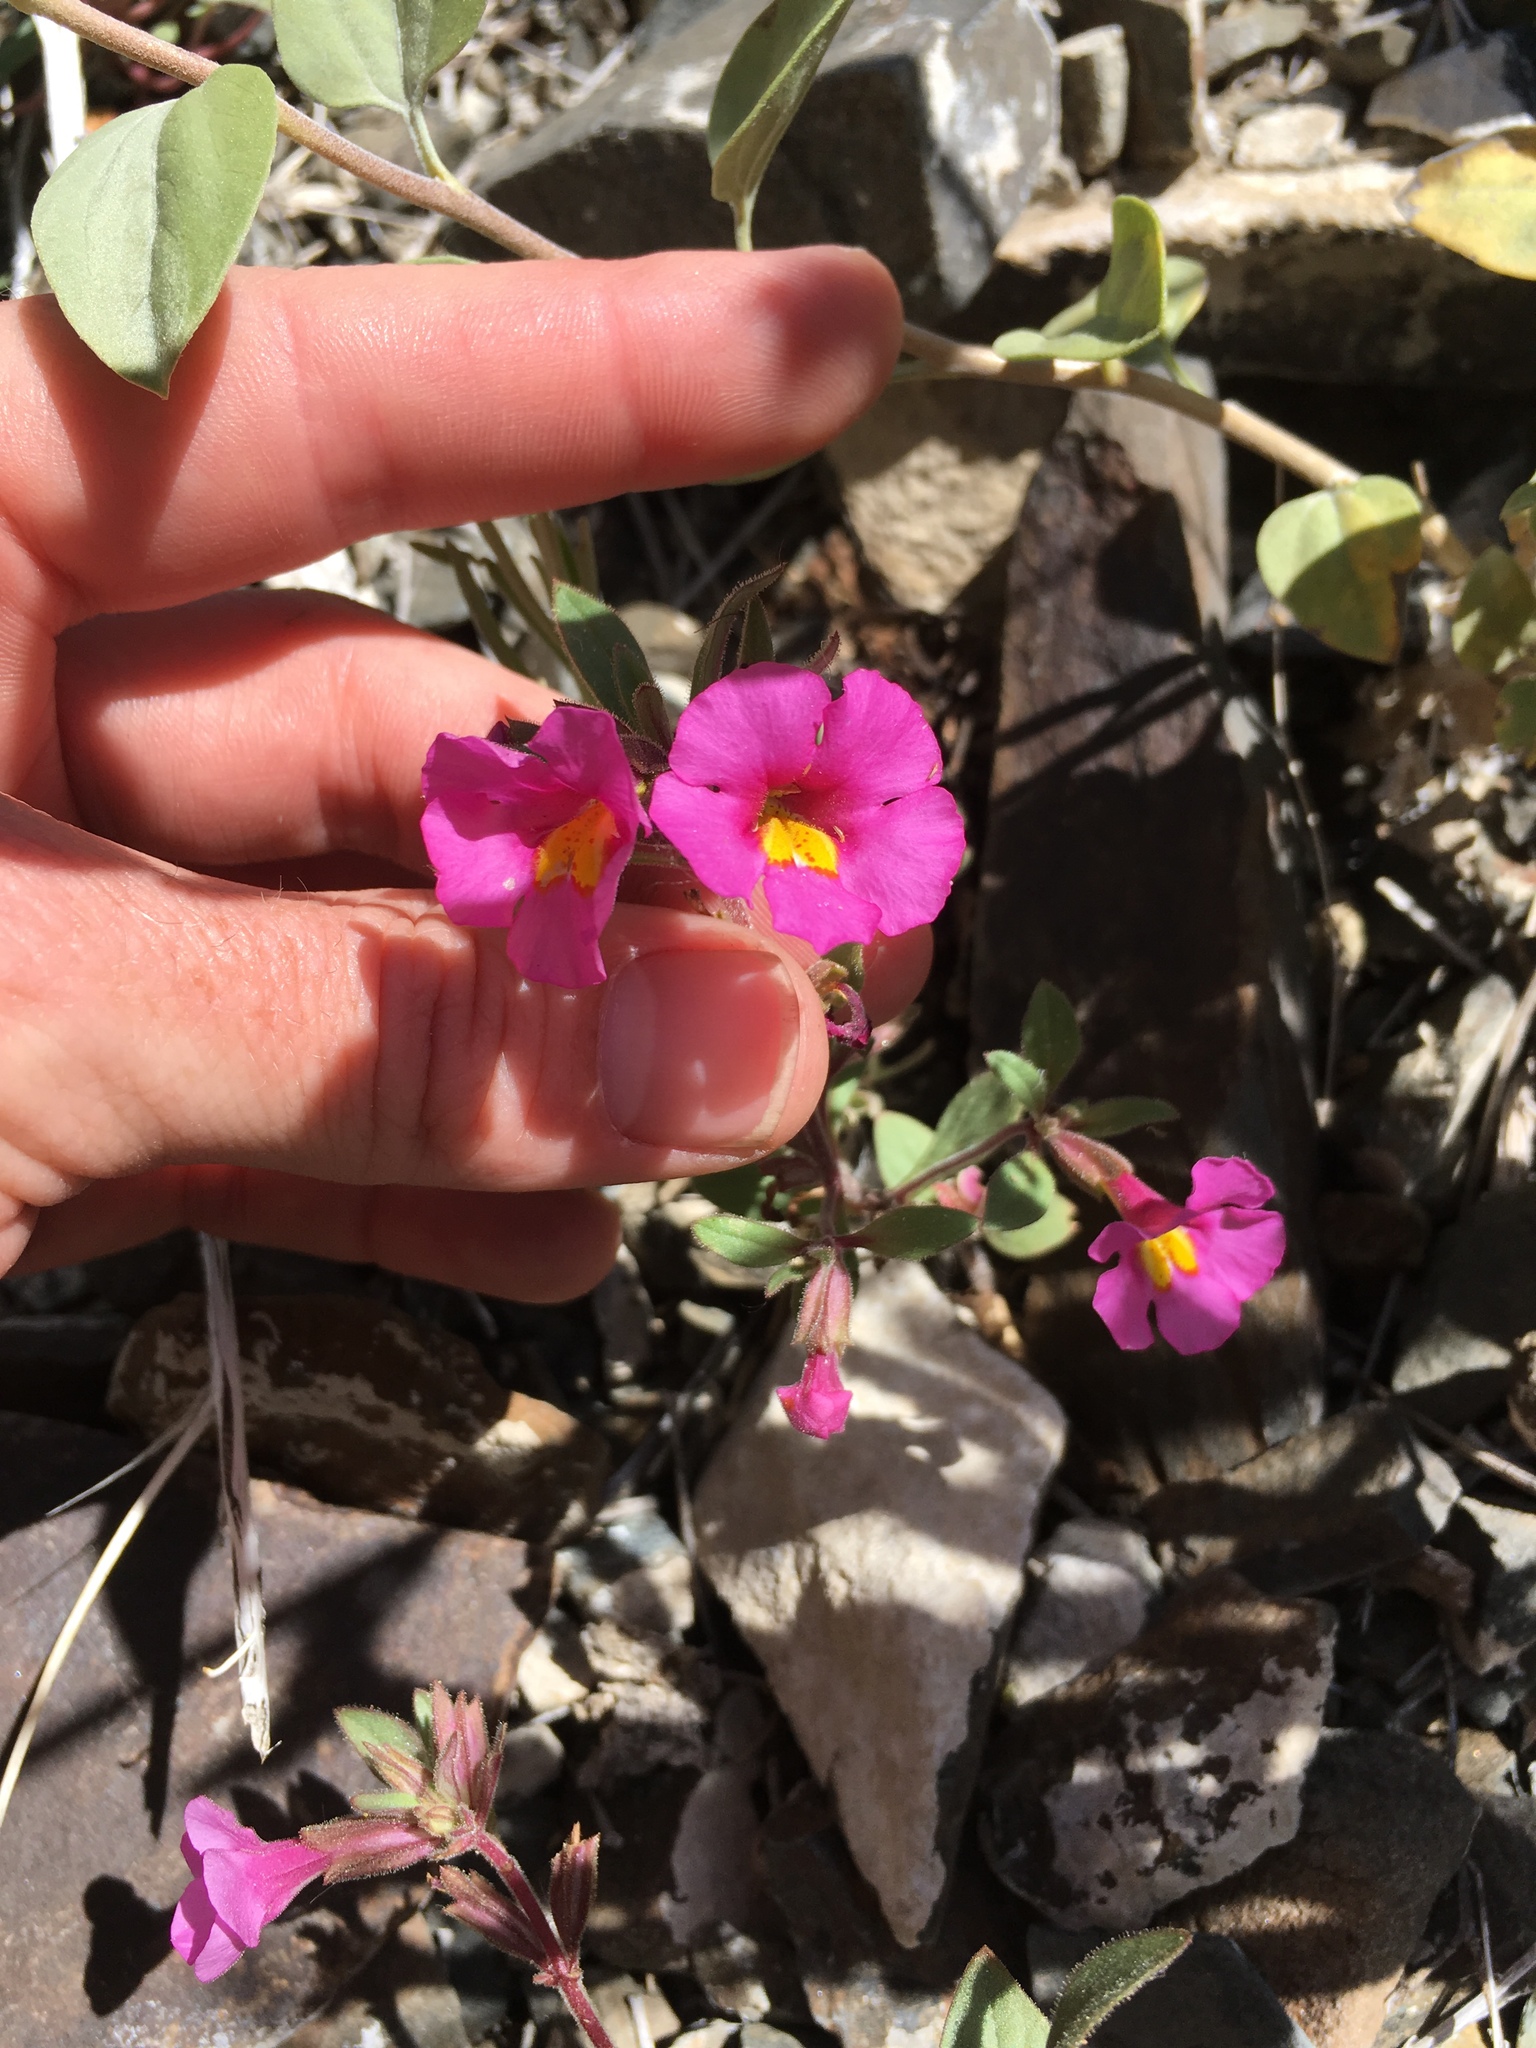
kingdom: Plantae
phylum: Tracheophyta
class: Magnoliopsida
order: Lamiales
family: Phrymaceae
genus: Diplacus
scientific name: Diplacus parryi
